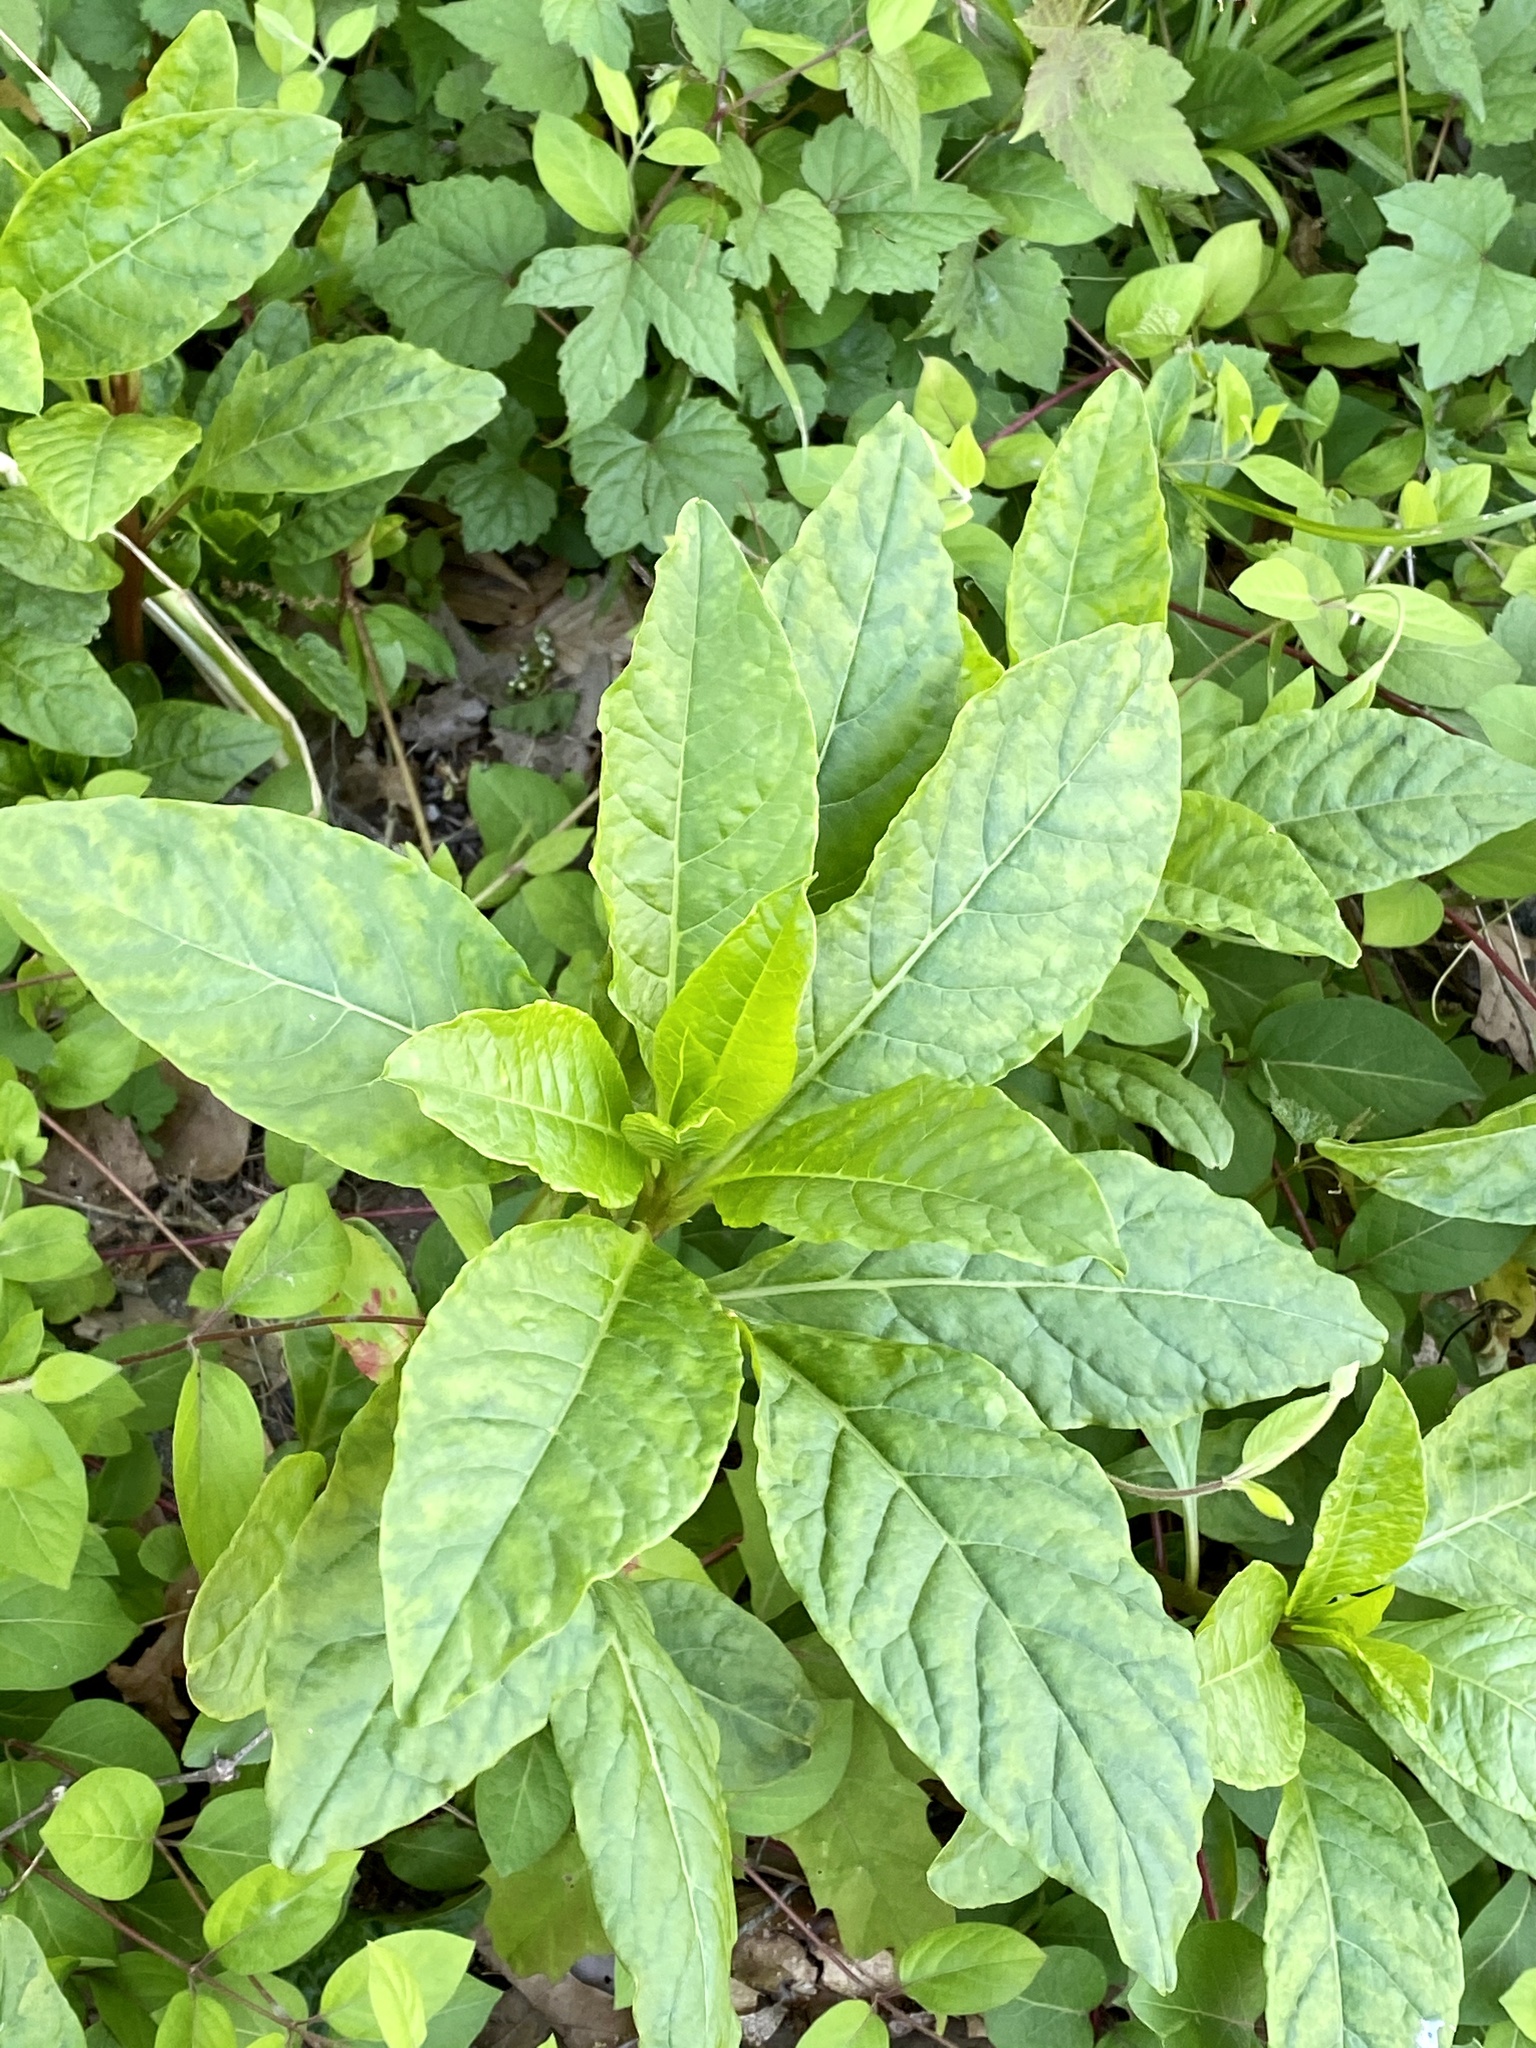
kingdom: Plantae
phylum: Tracheophyta
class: Magnoliopsida
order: Caryophyllales
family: Phytolaccaceae
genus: Phytolacca
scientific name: Phytolacca americana
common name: American pokeweed
